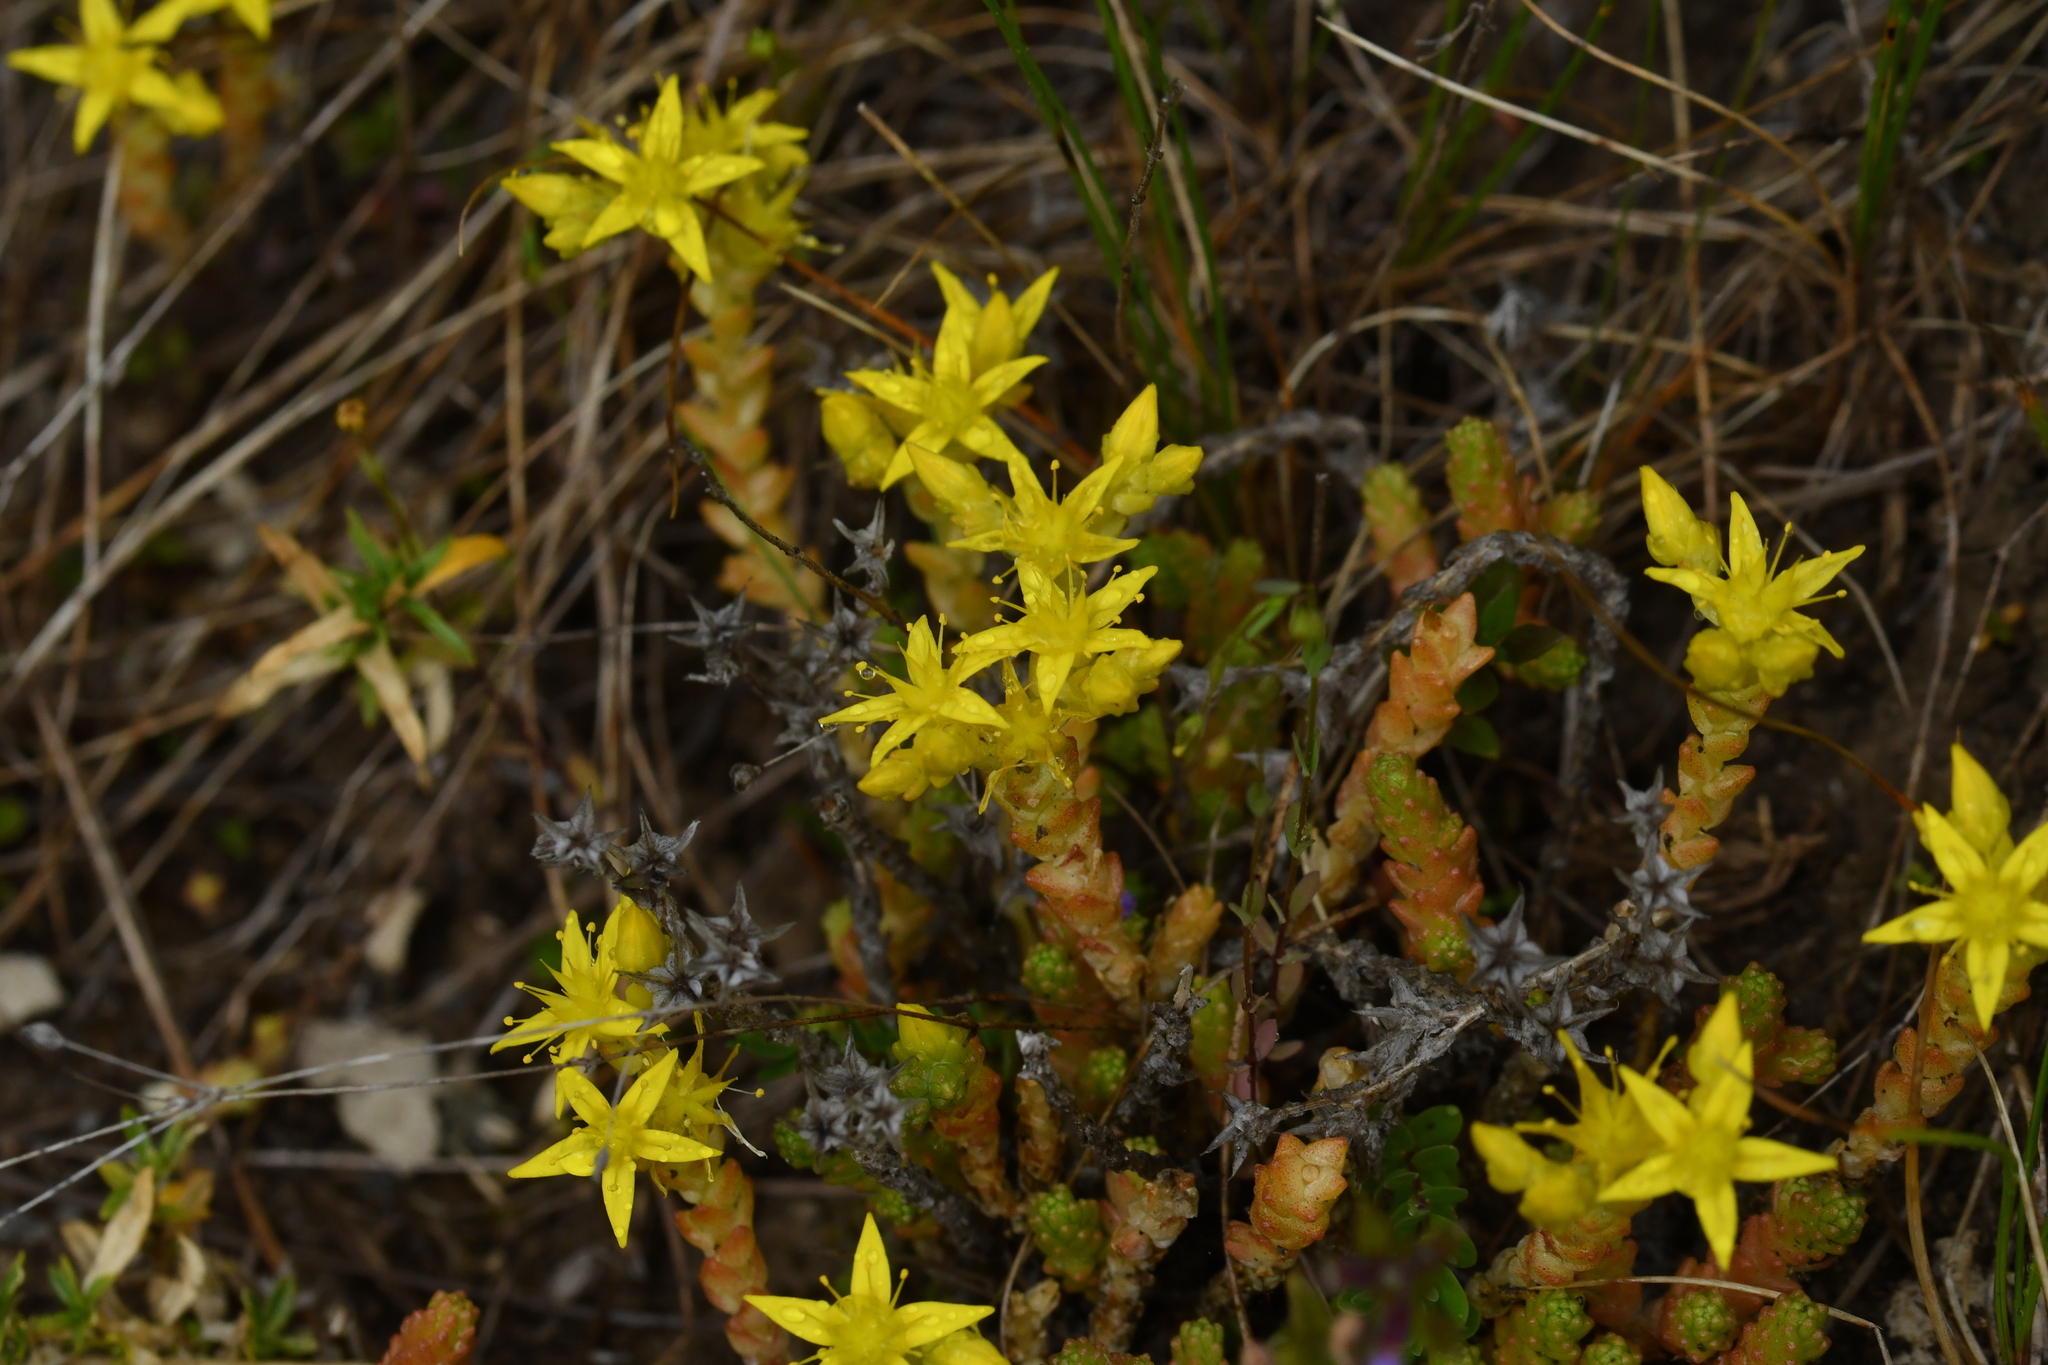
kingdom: Plantae
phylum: Tracheophyta
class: Magnoliopsida
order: Saxifragales
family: Crassulaceae
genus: Sedum
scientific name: Sedum acre
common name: Biting stonecrop
